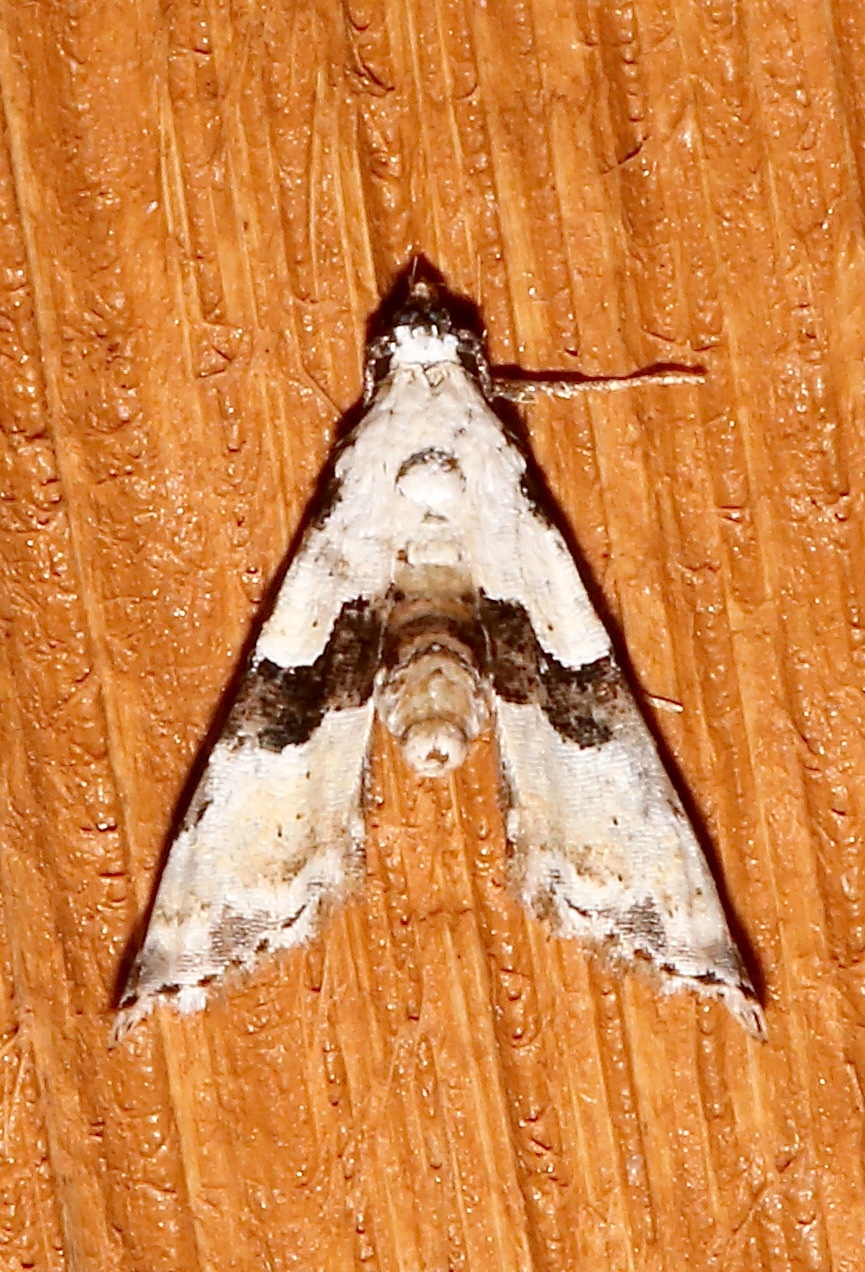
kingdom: Animalia
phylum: Arthropoda
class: Insecta
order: Lepidoptera
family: Noctuidae
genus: Nigetia
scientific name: Nigetia formosalis
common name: Thin-winged owlet
